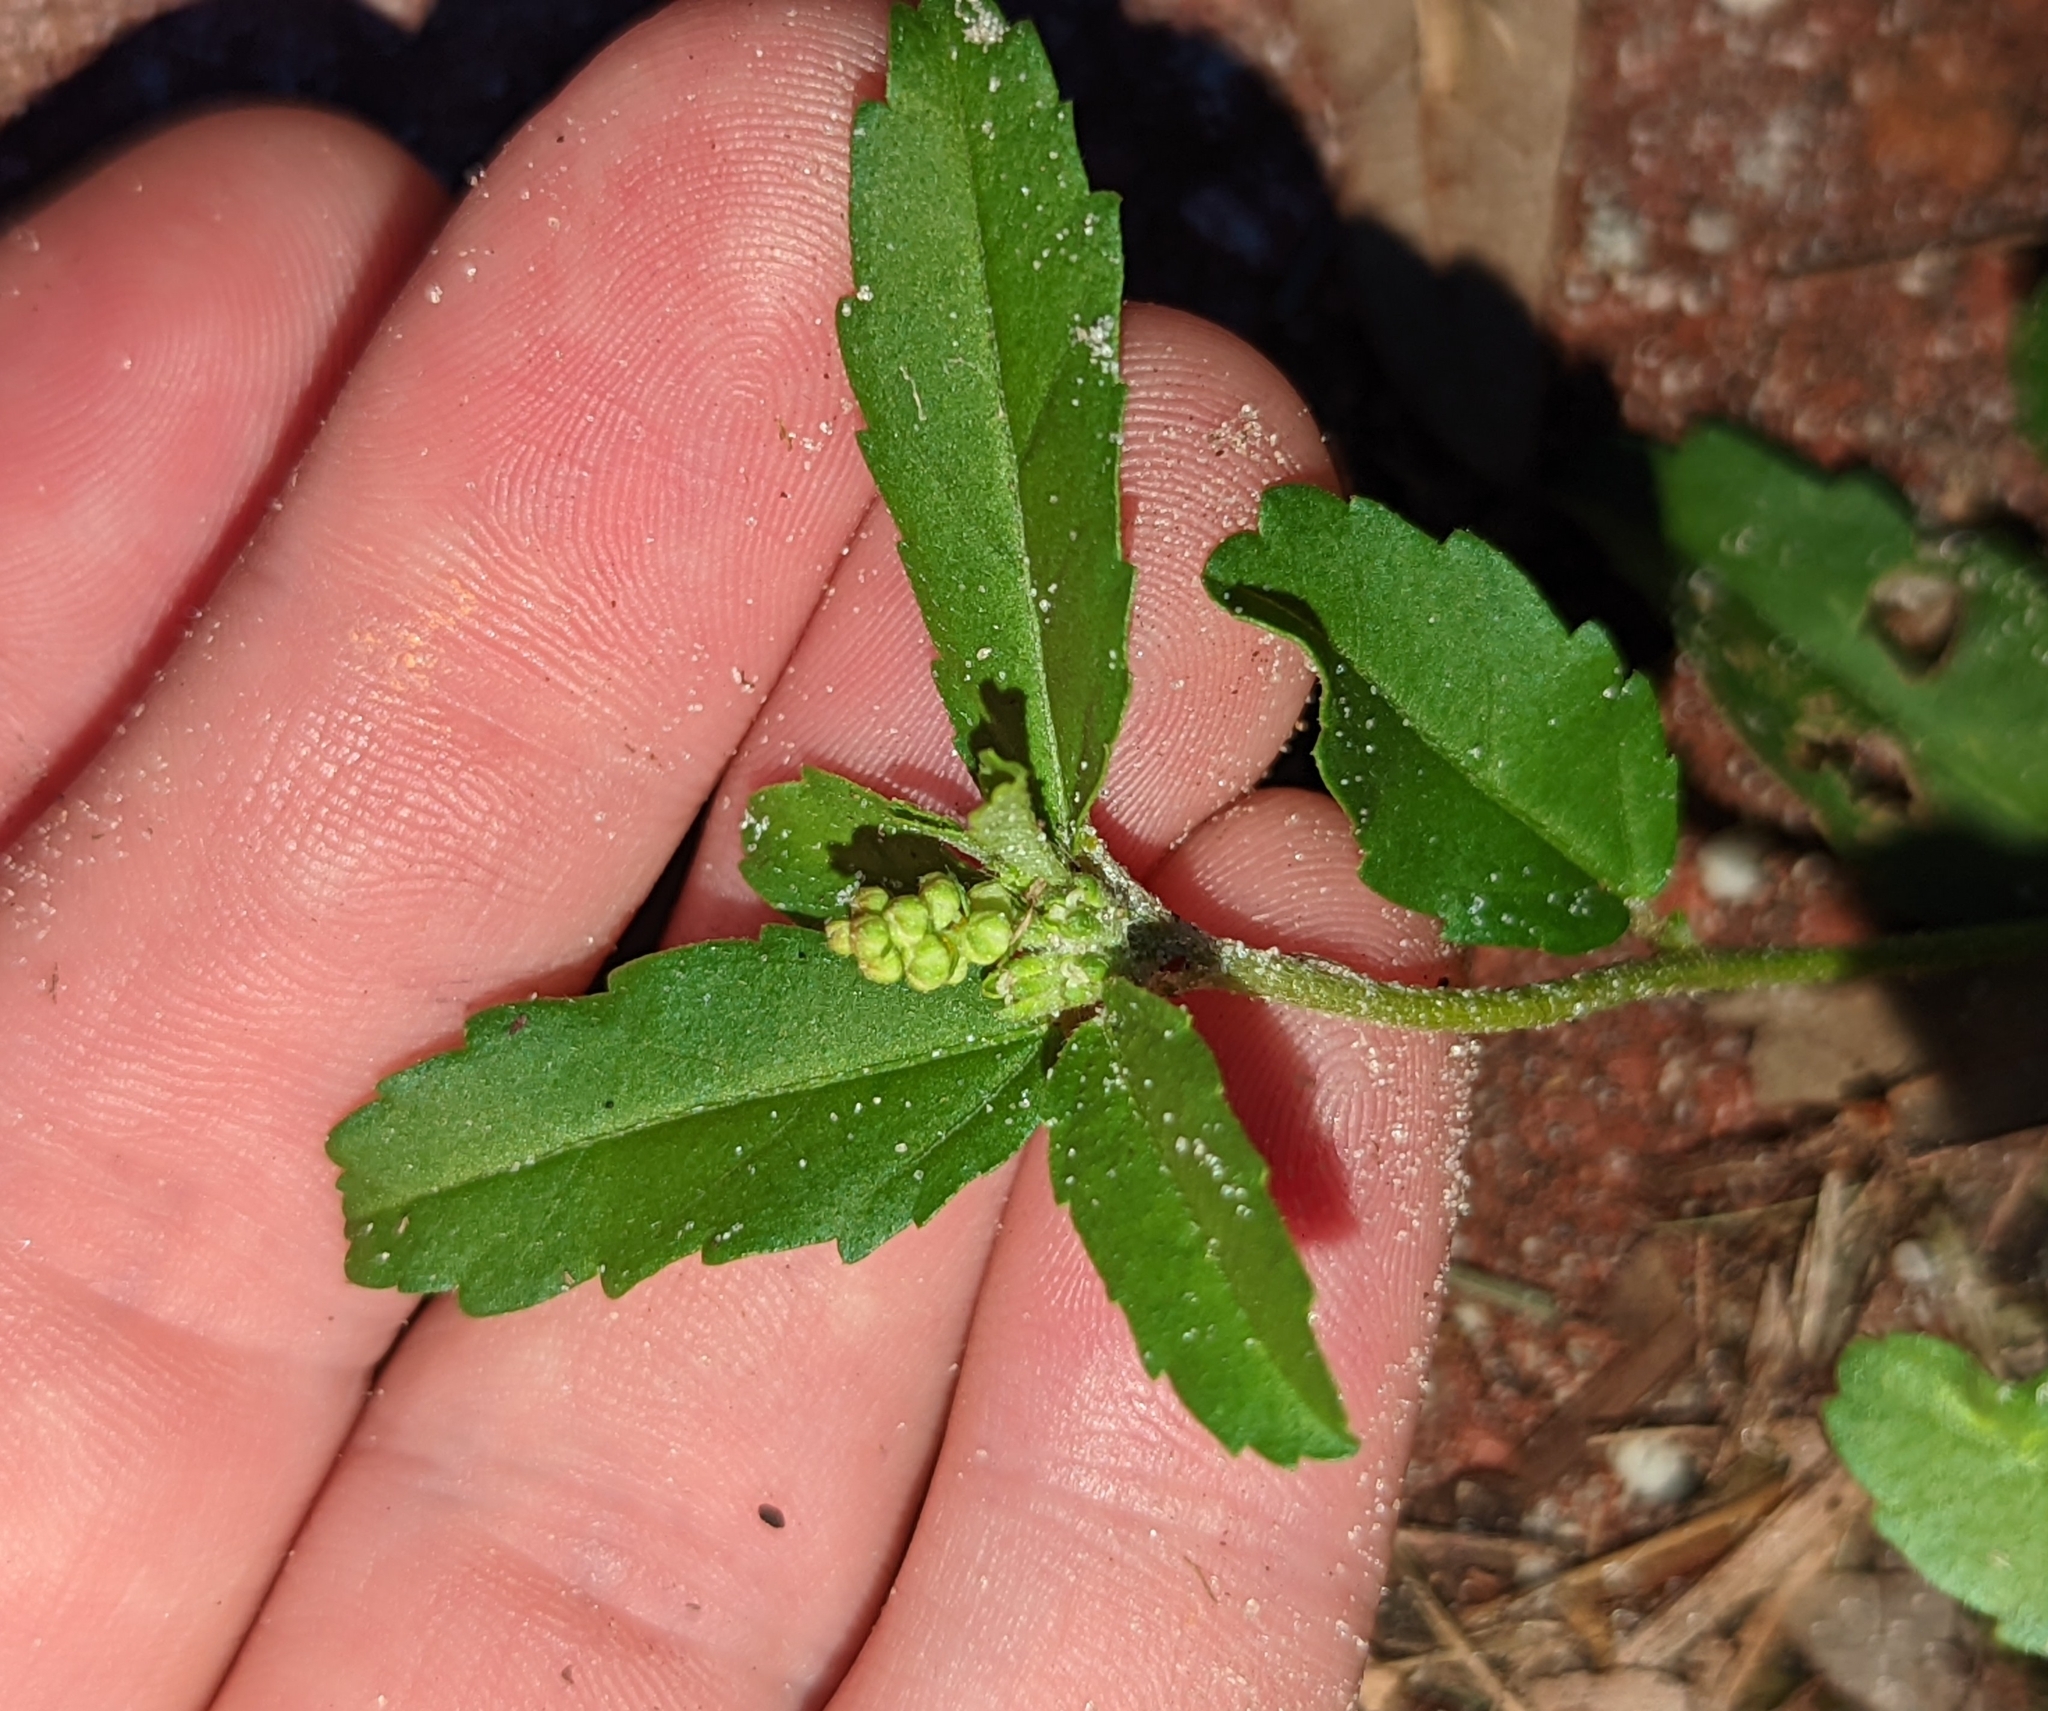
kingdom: Plantae
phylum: Tracheophyta
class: Magnoliopsida
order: Malpighiales
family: Euphorbiaceae
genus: Croton
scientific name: Croton glandulosus
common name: Tropic croton
